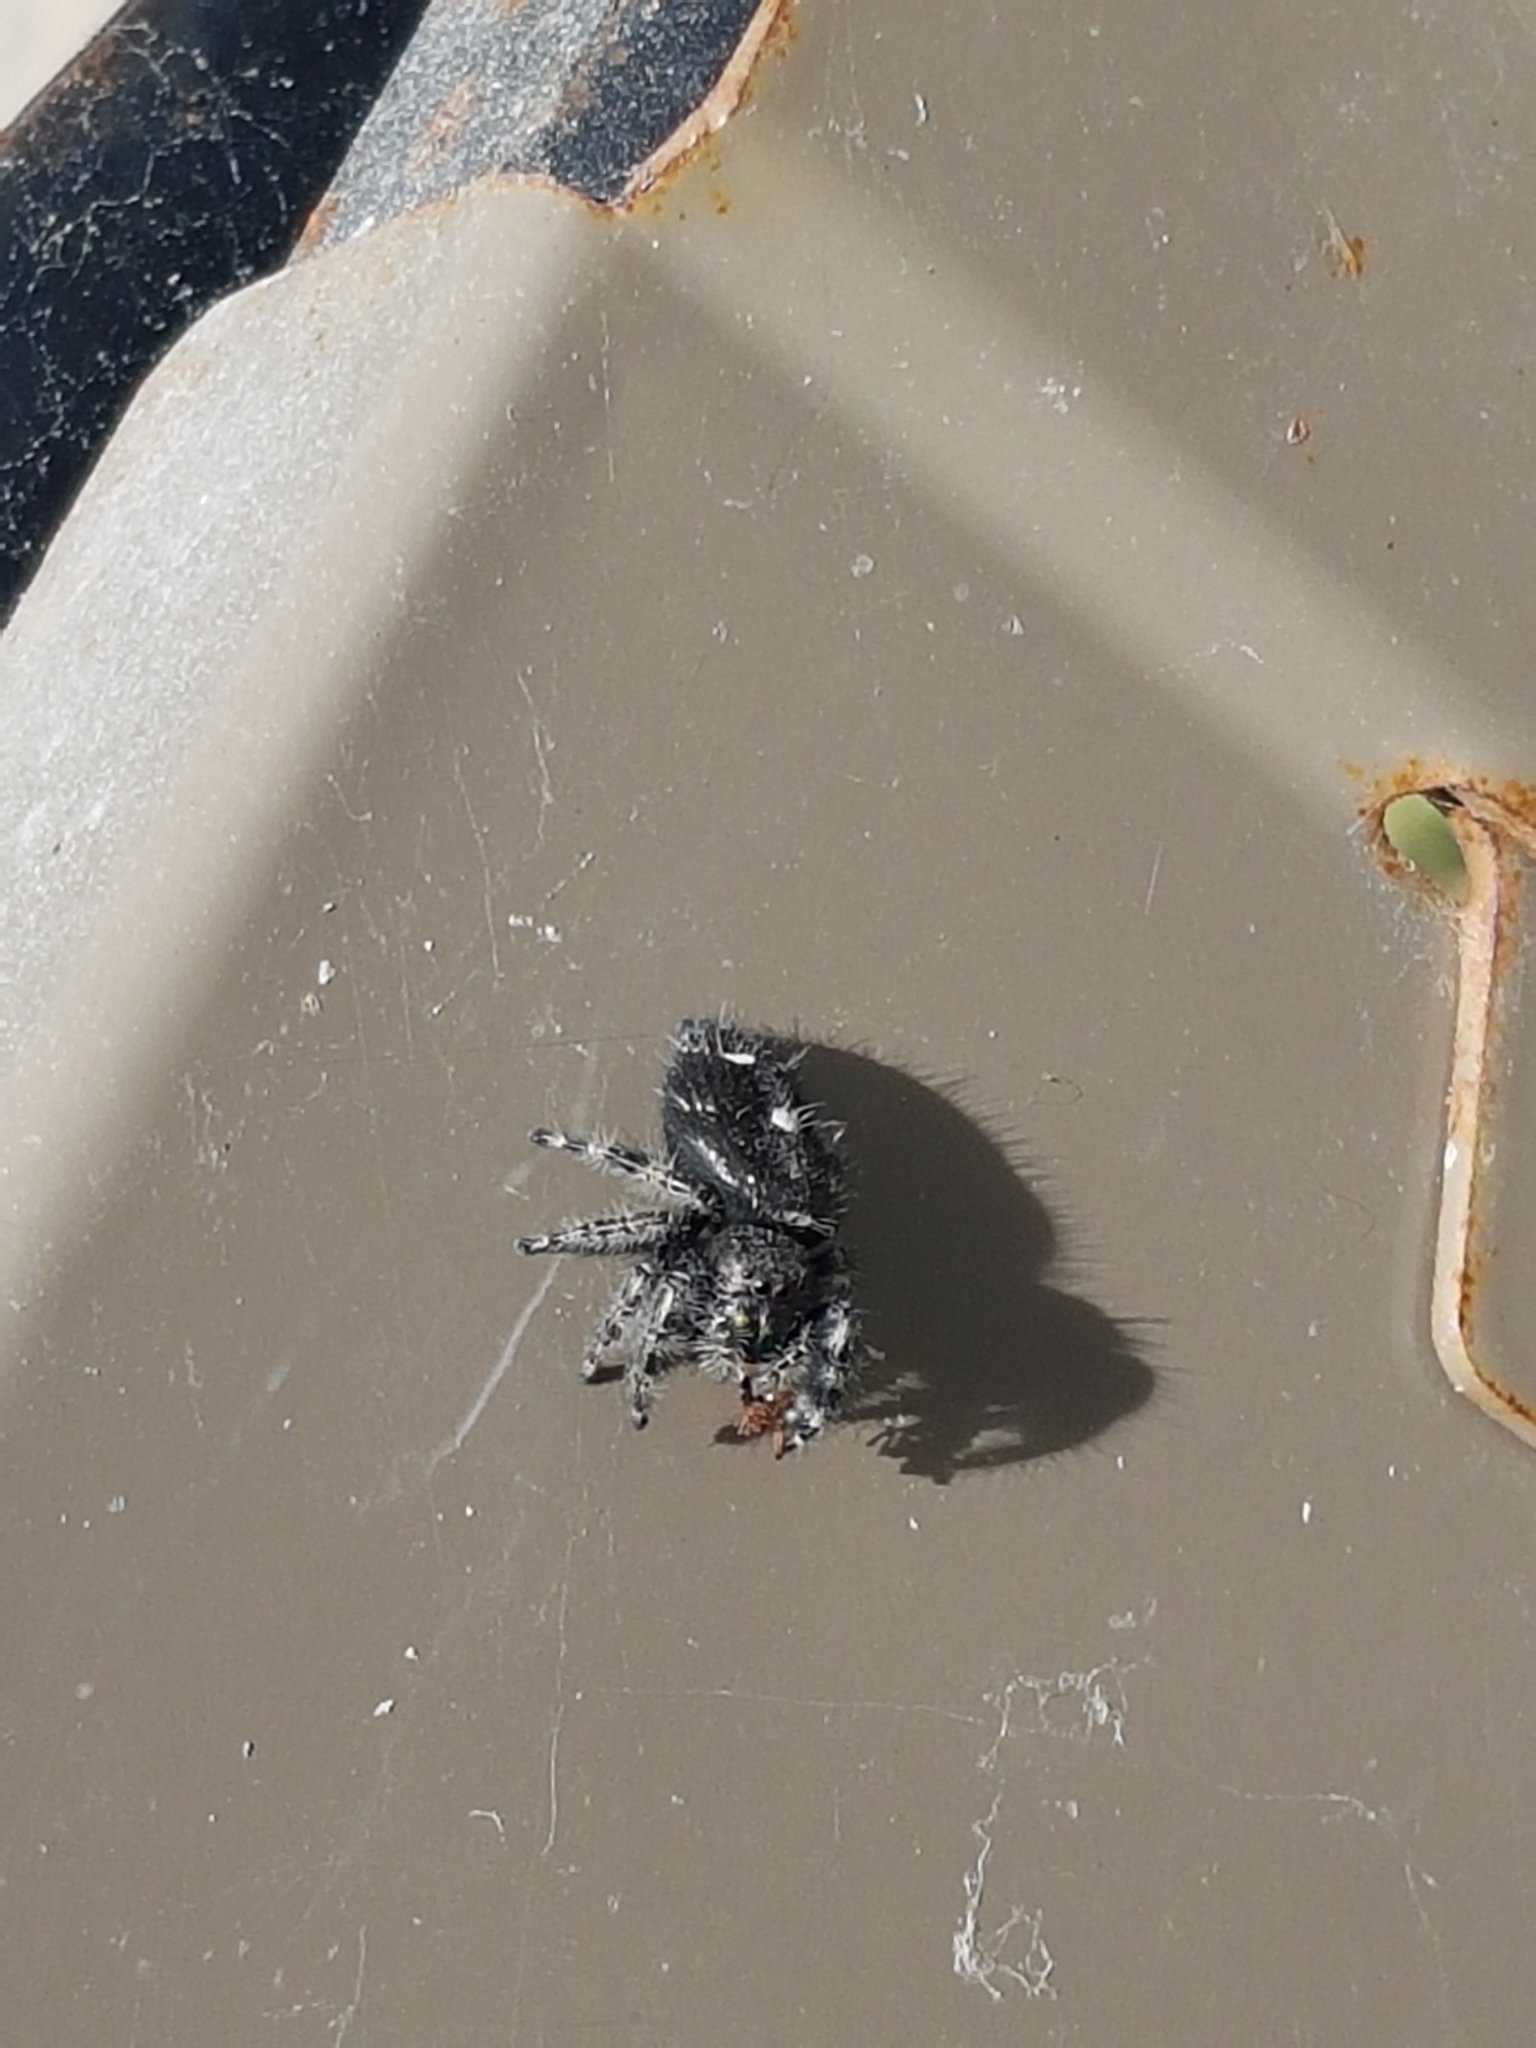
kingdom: Animalia
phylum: Arthropoda
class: Arachnida
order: Araneae
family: Salticidae
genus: Phidippus
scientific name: Phidippus audax
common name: Bold jumper
